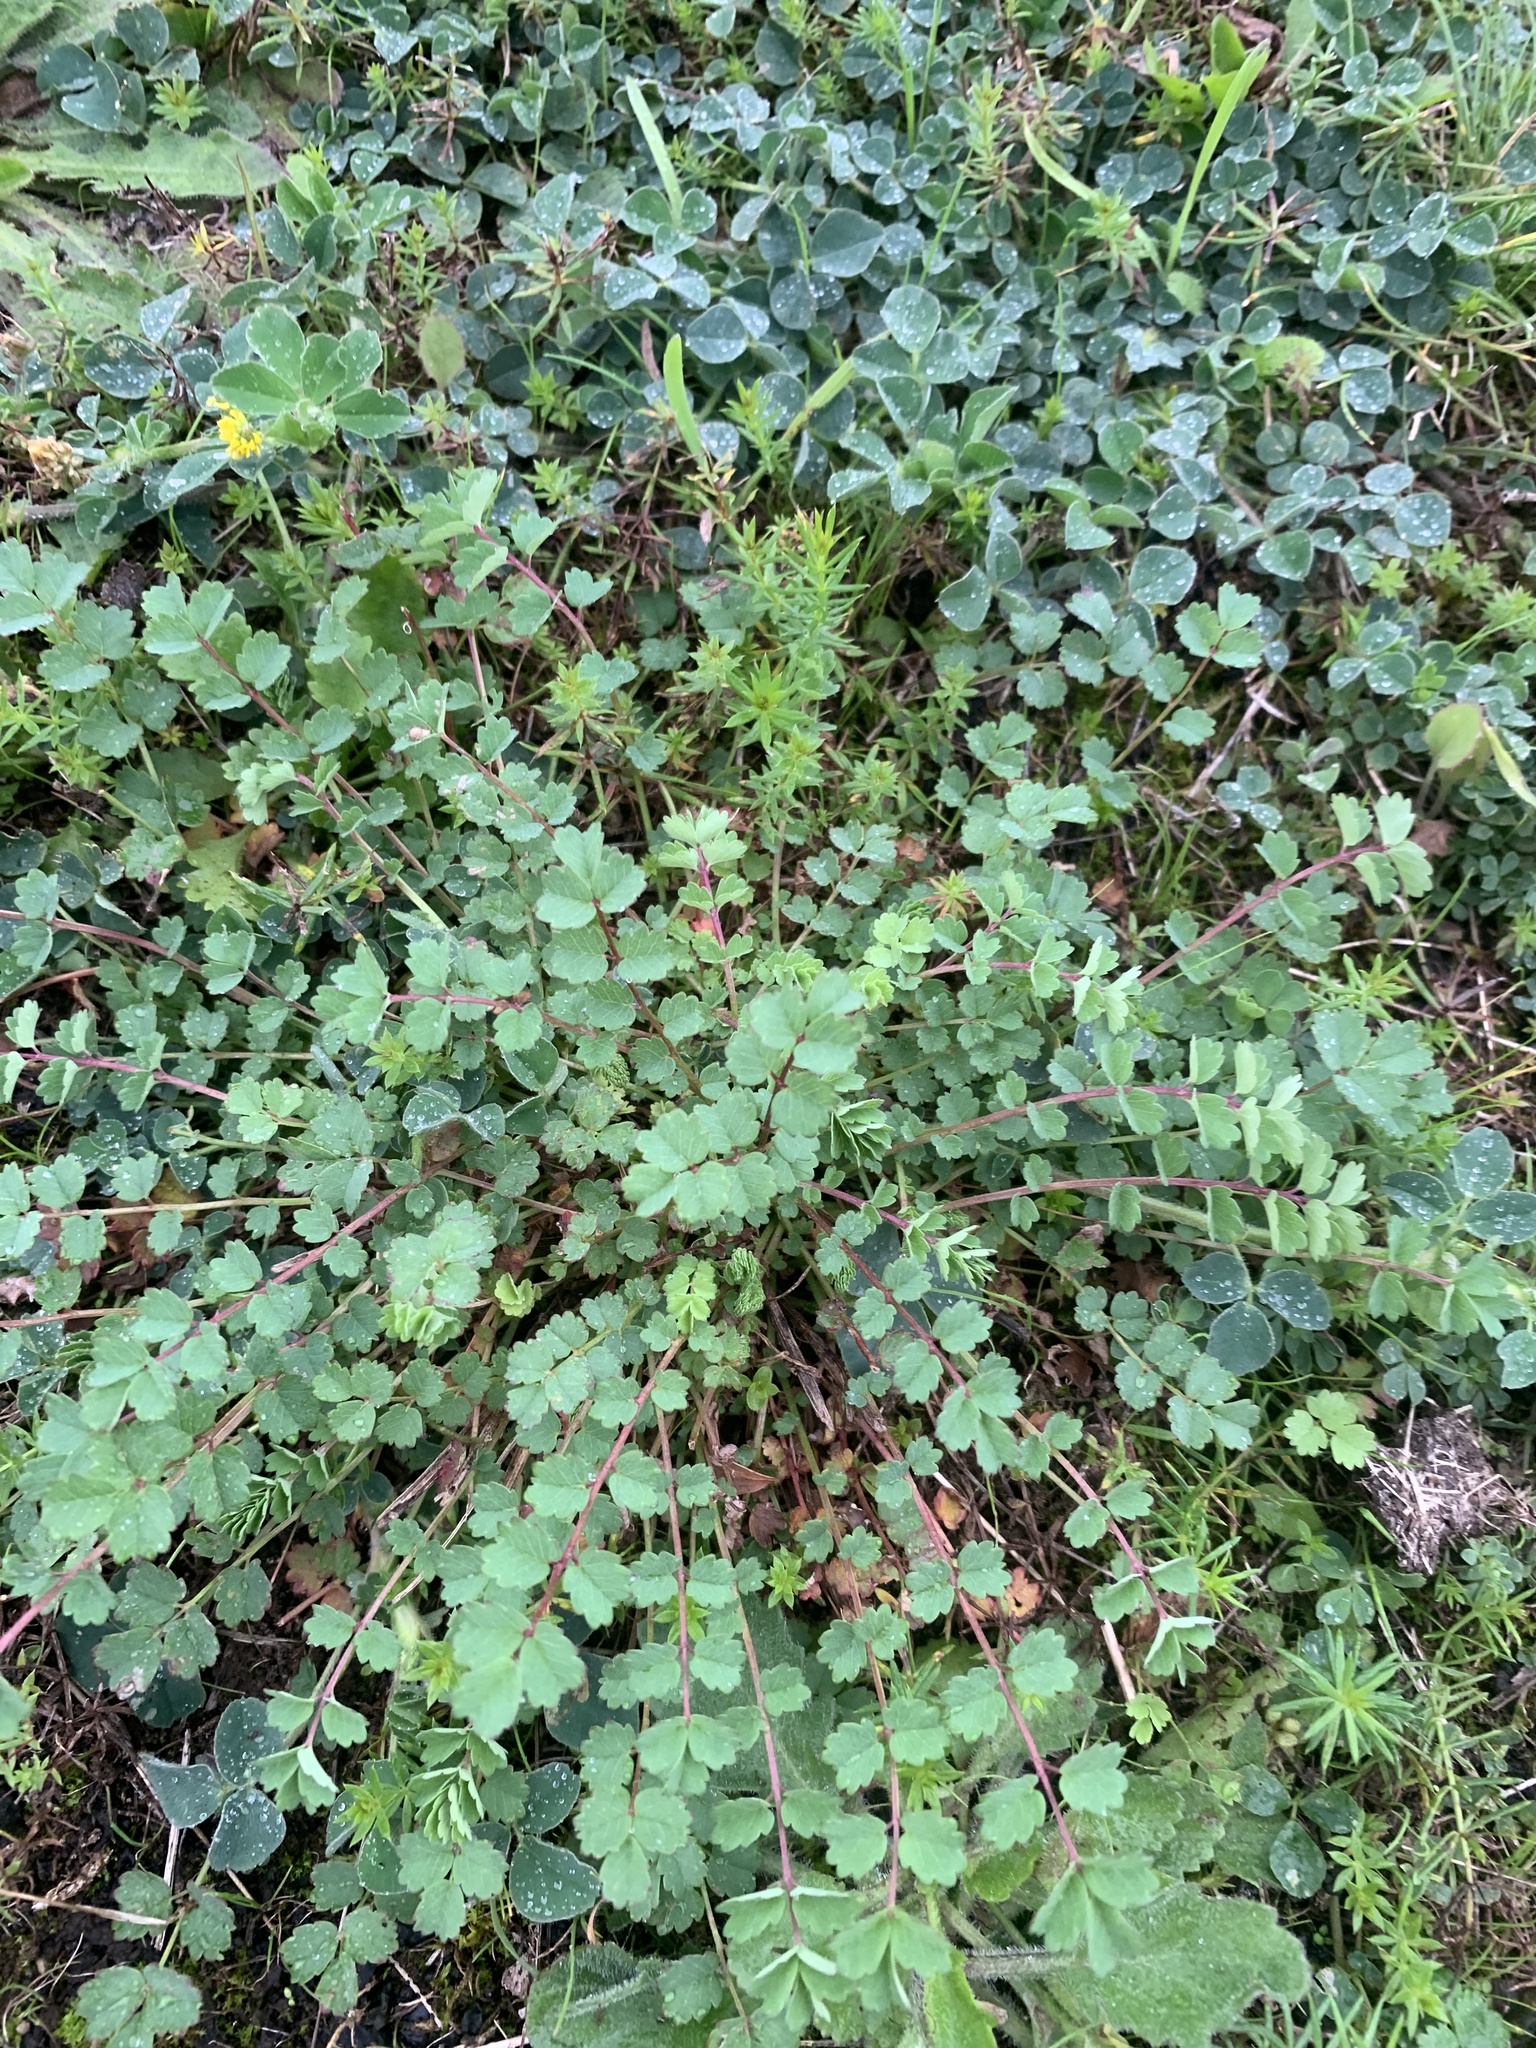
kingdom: Plantae
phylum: Tracheophyta
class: Magnoliopsida
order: Rosales
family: Rosaceae
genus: Poterium
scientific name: Poterium sanguisorba
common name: Salad burnet
